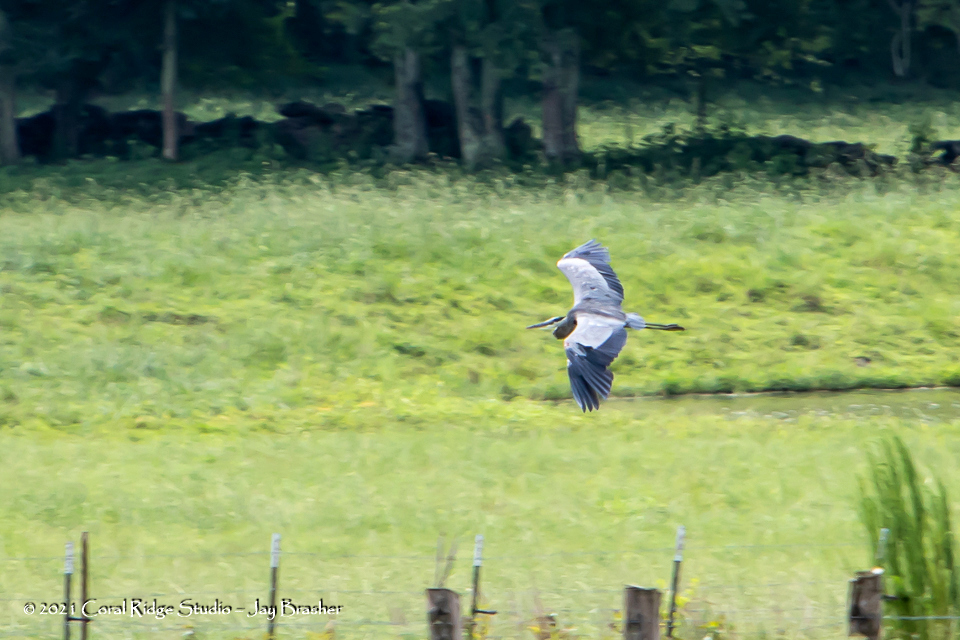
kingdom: Animalia
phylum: Chordata
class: Aves
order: Pelecaniformes
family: Ardeidae
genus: Ardea
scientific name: Ardea herodias
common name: Great blue heron
